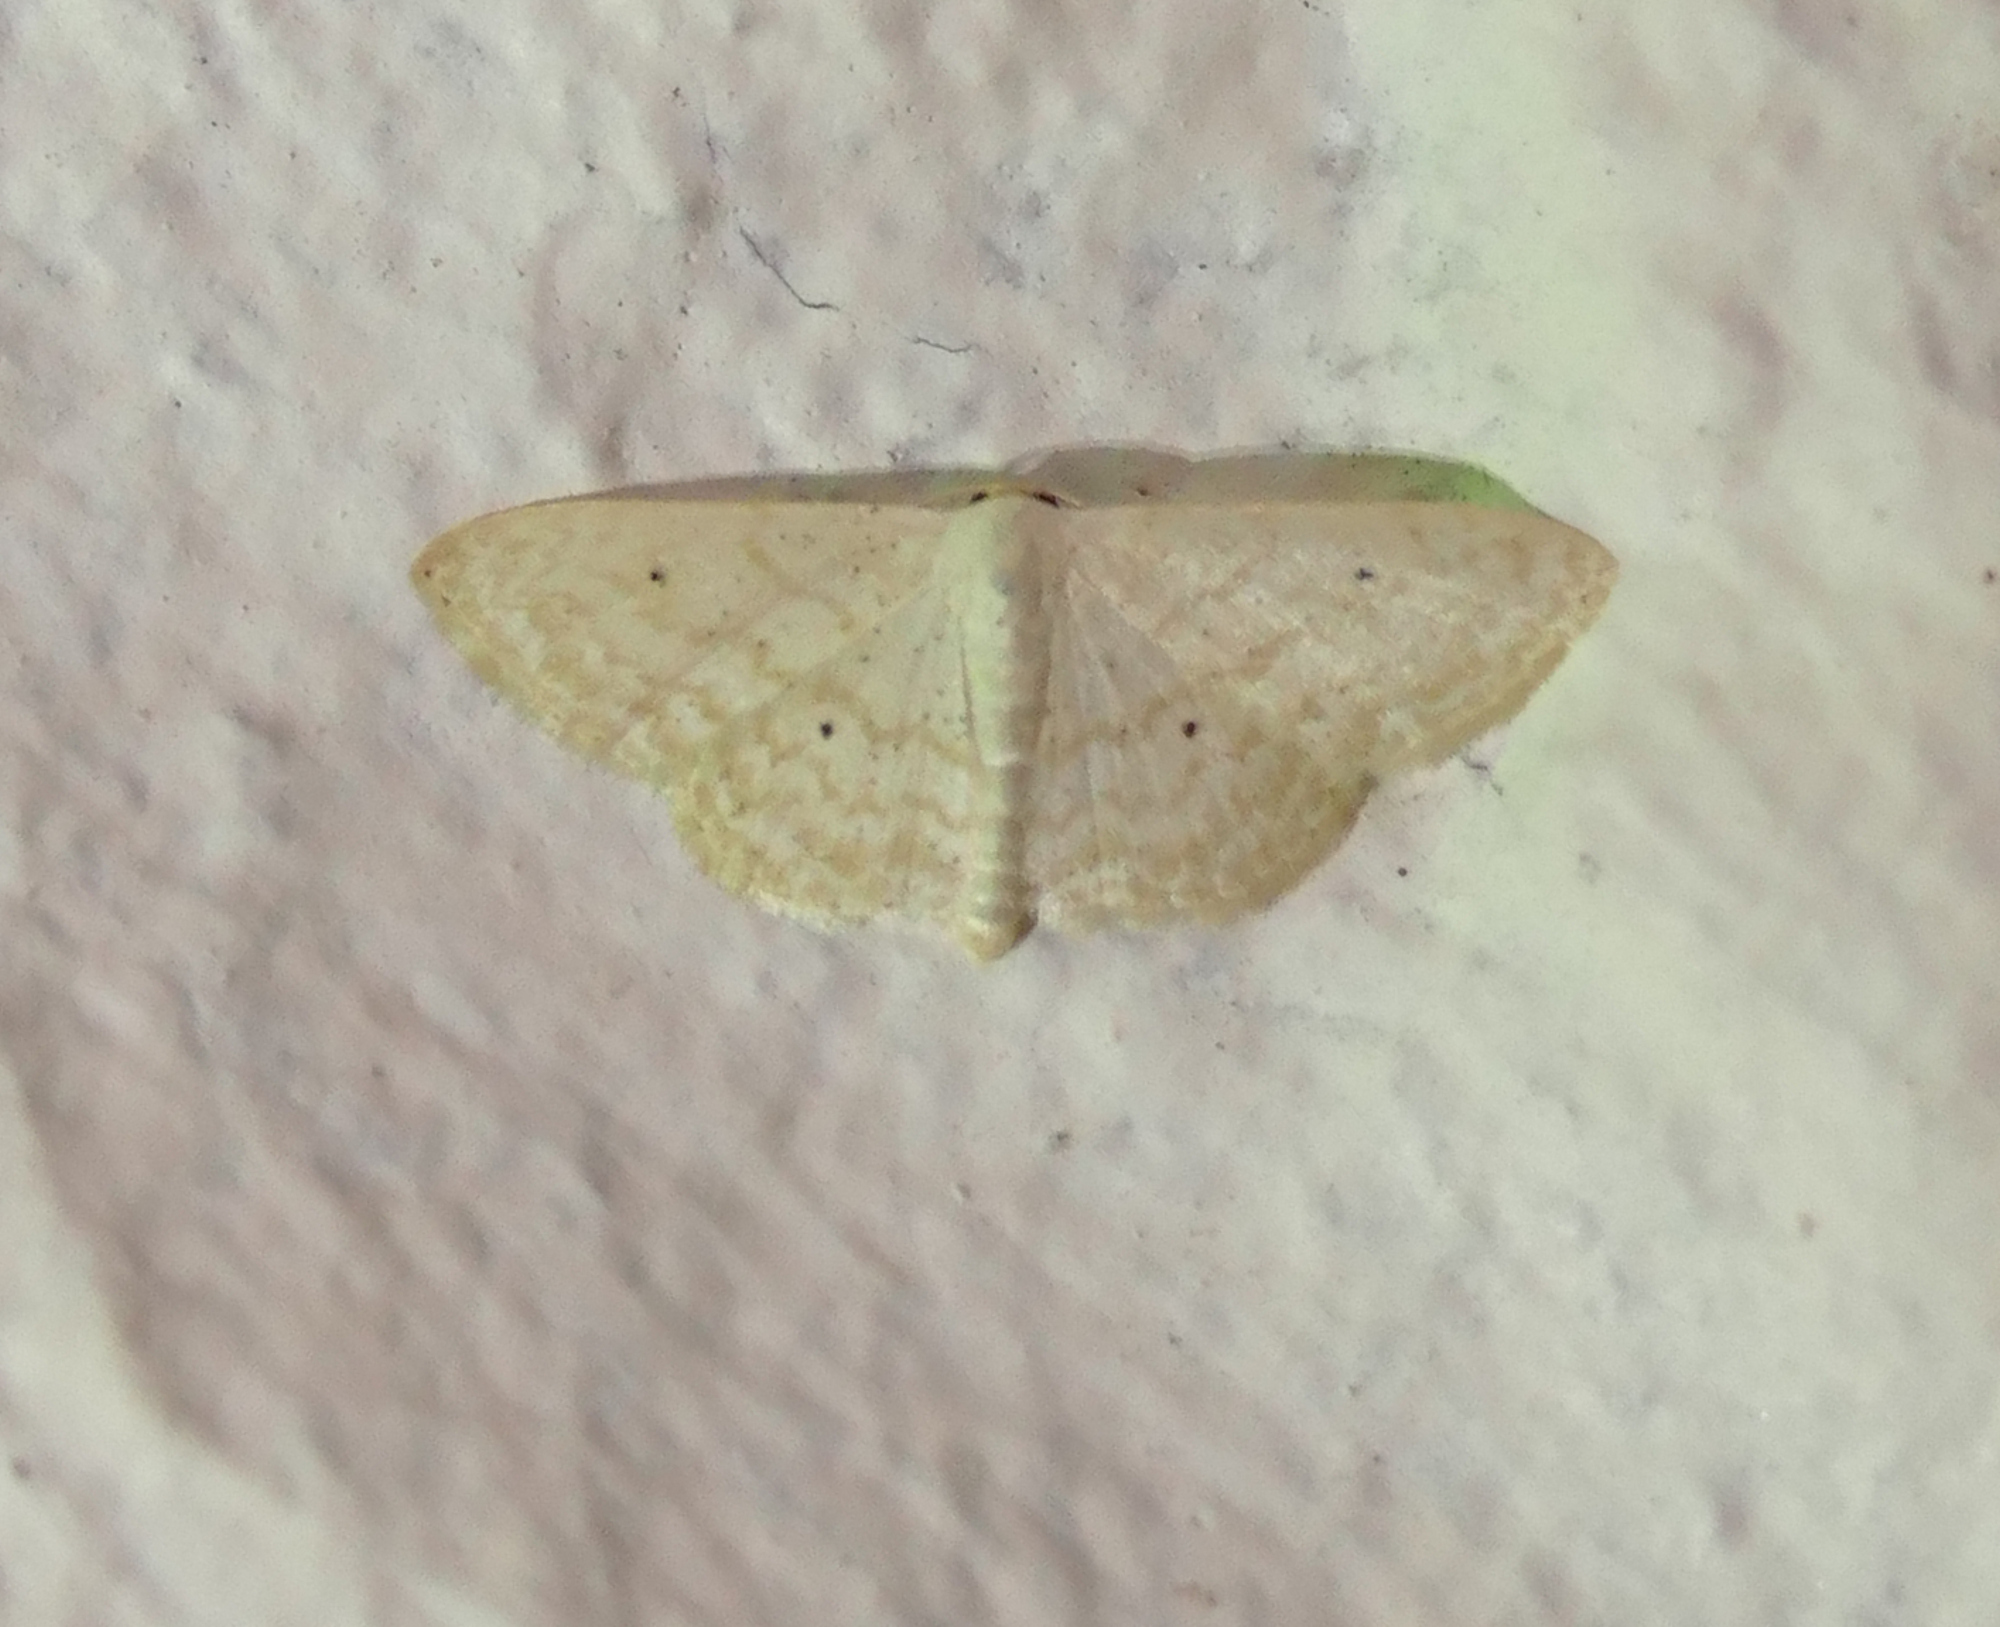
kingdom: Animalia
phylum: Arthropoda
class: Insecta
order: Lepidoptera
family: Geometridae
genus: Scopula
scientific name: Scopula benitaria
